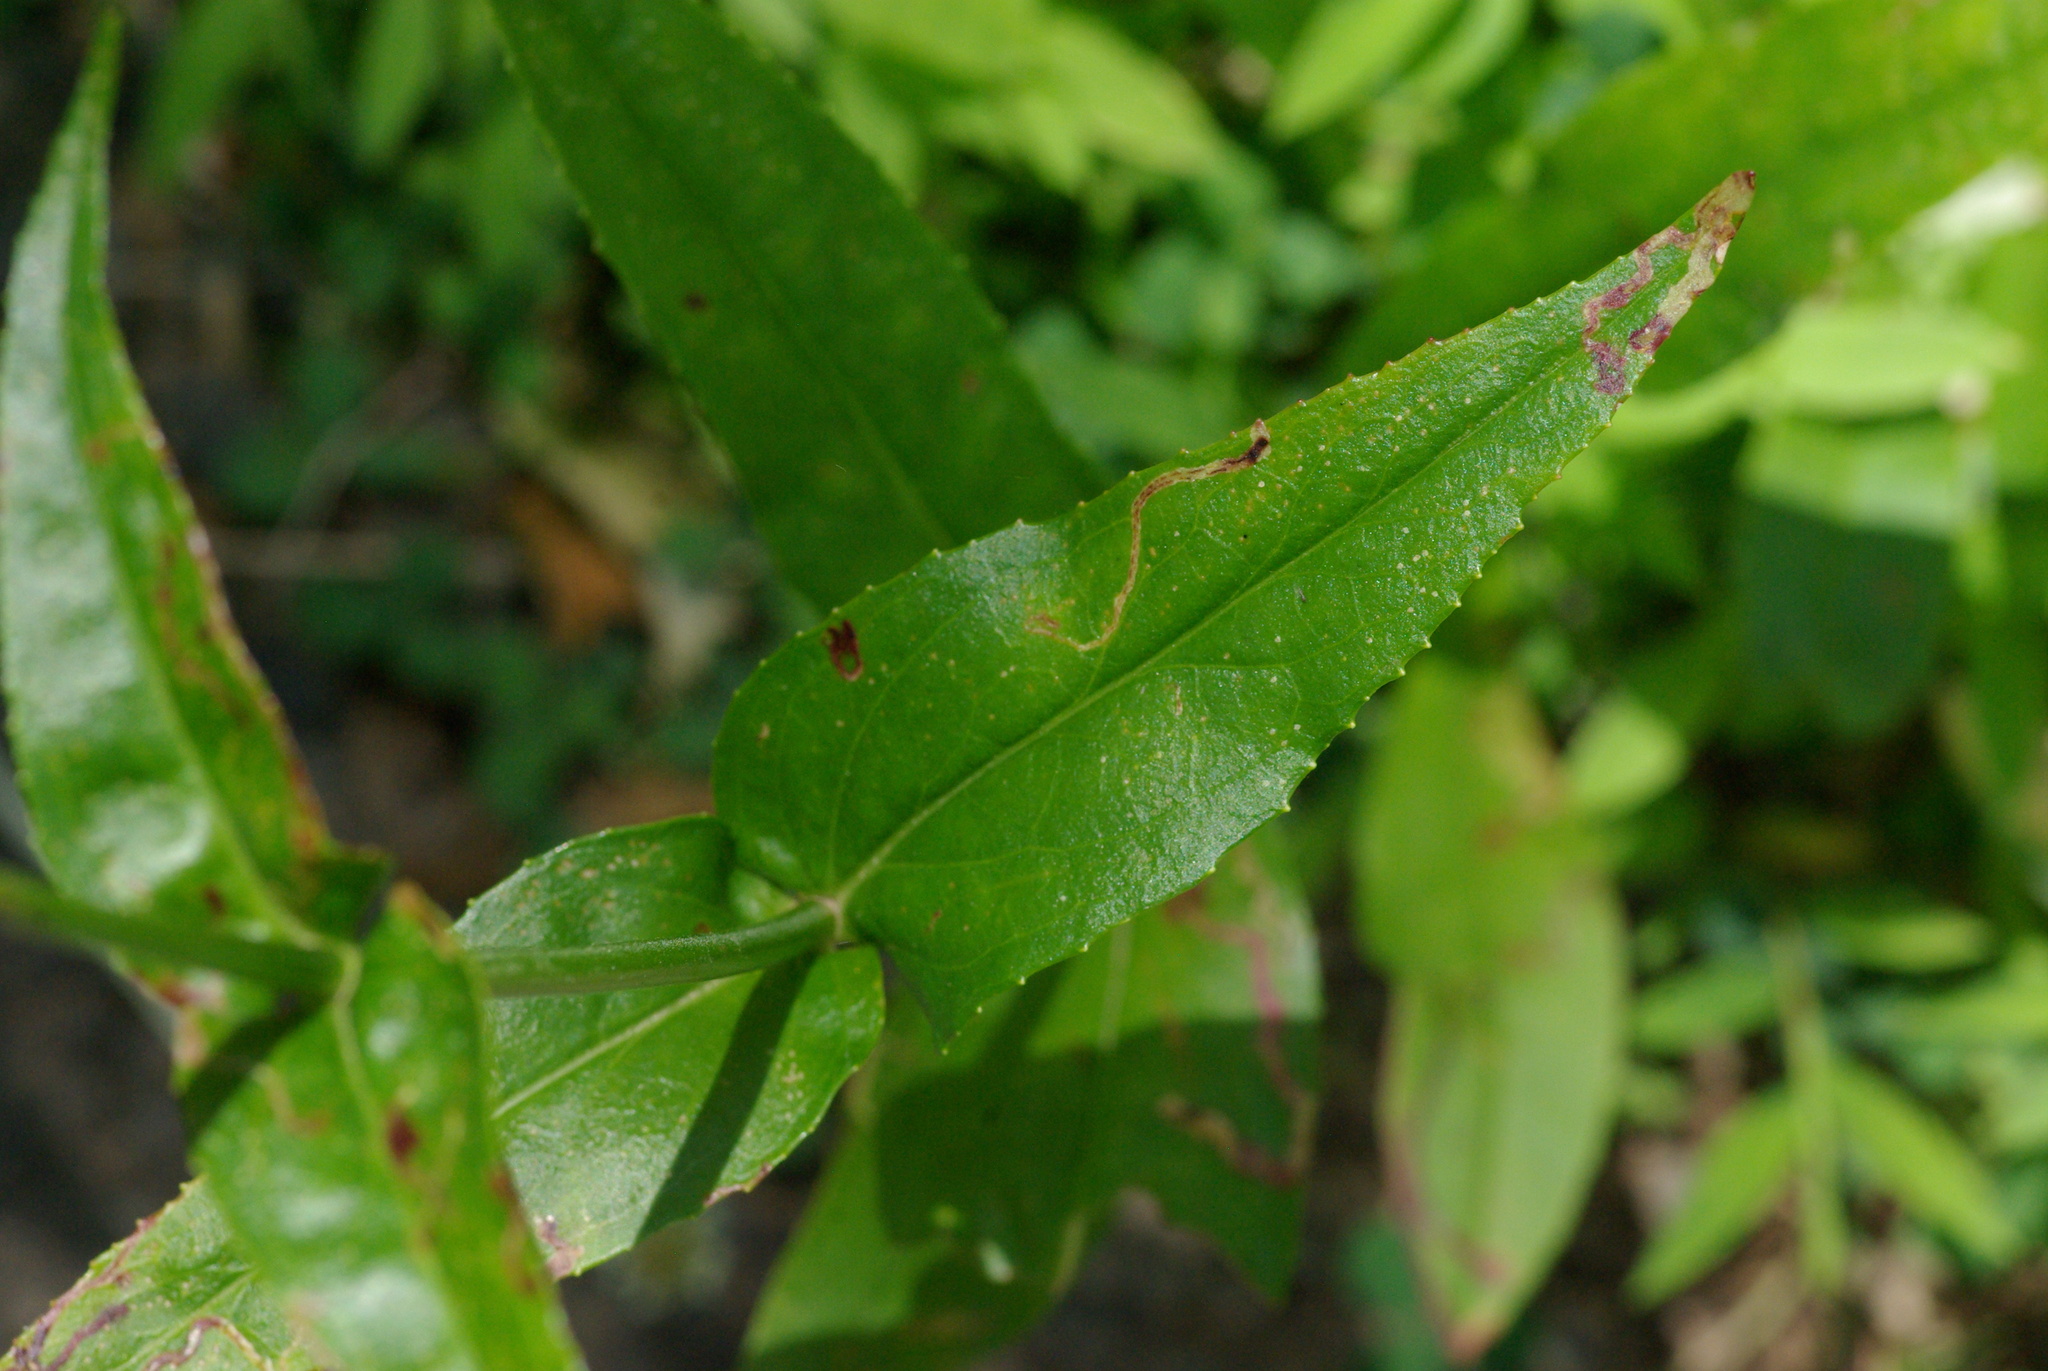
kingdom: Plantae
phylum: Tracheophyta
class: Magnoliopsida
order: Lamiales
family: Plantaginaceae
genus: Penstemon
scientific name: Penstemon digitalis
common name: Foxglove beardtongue
